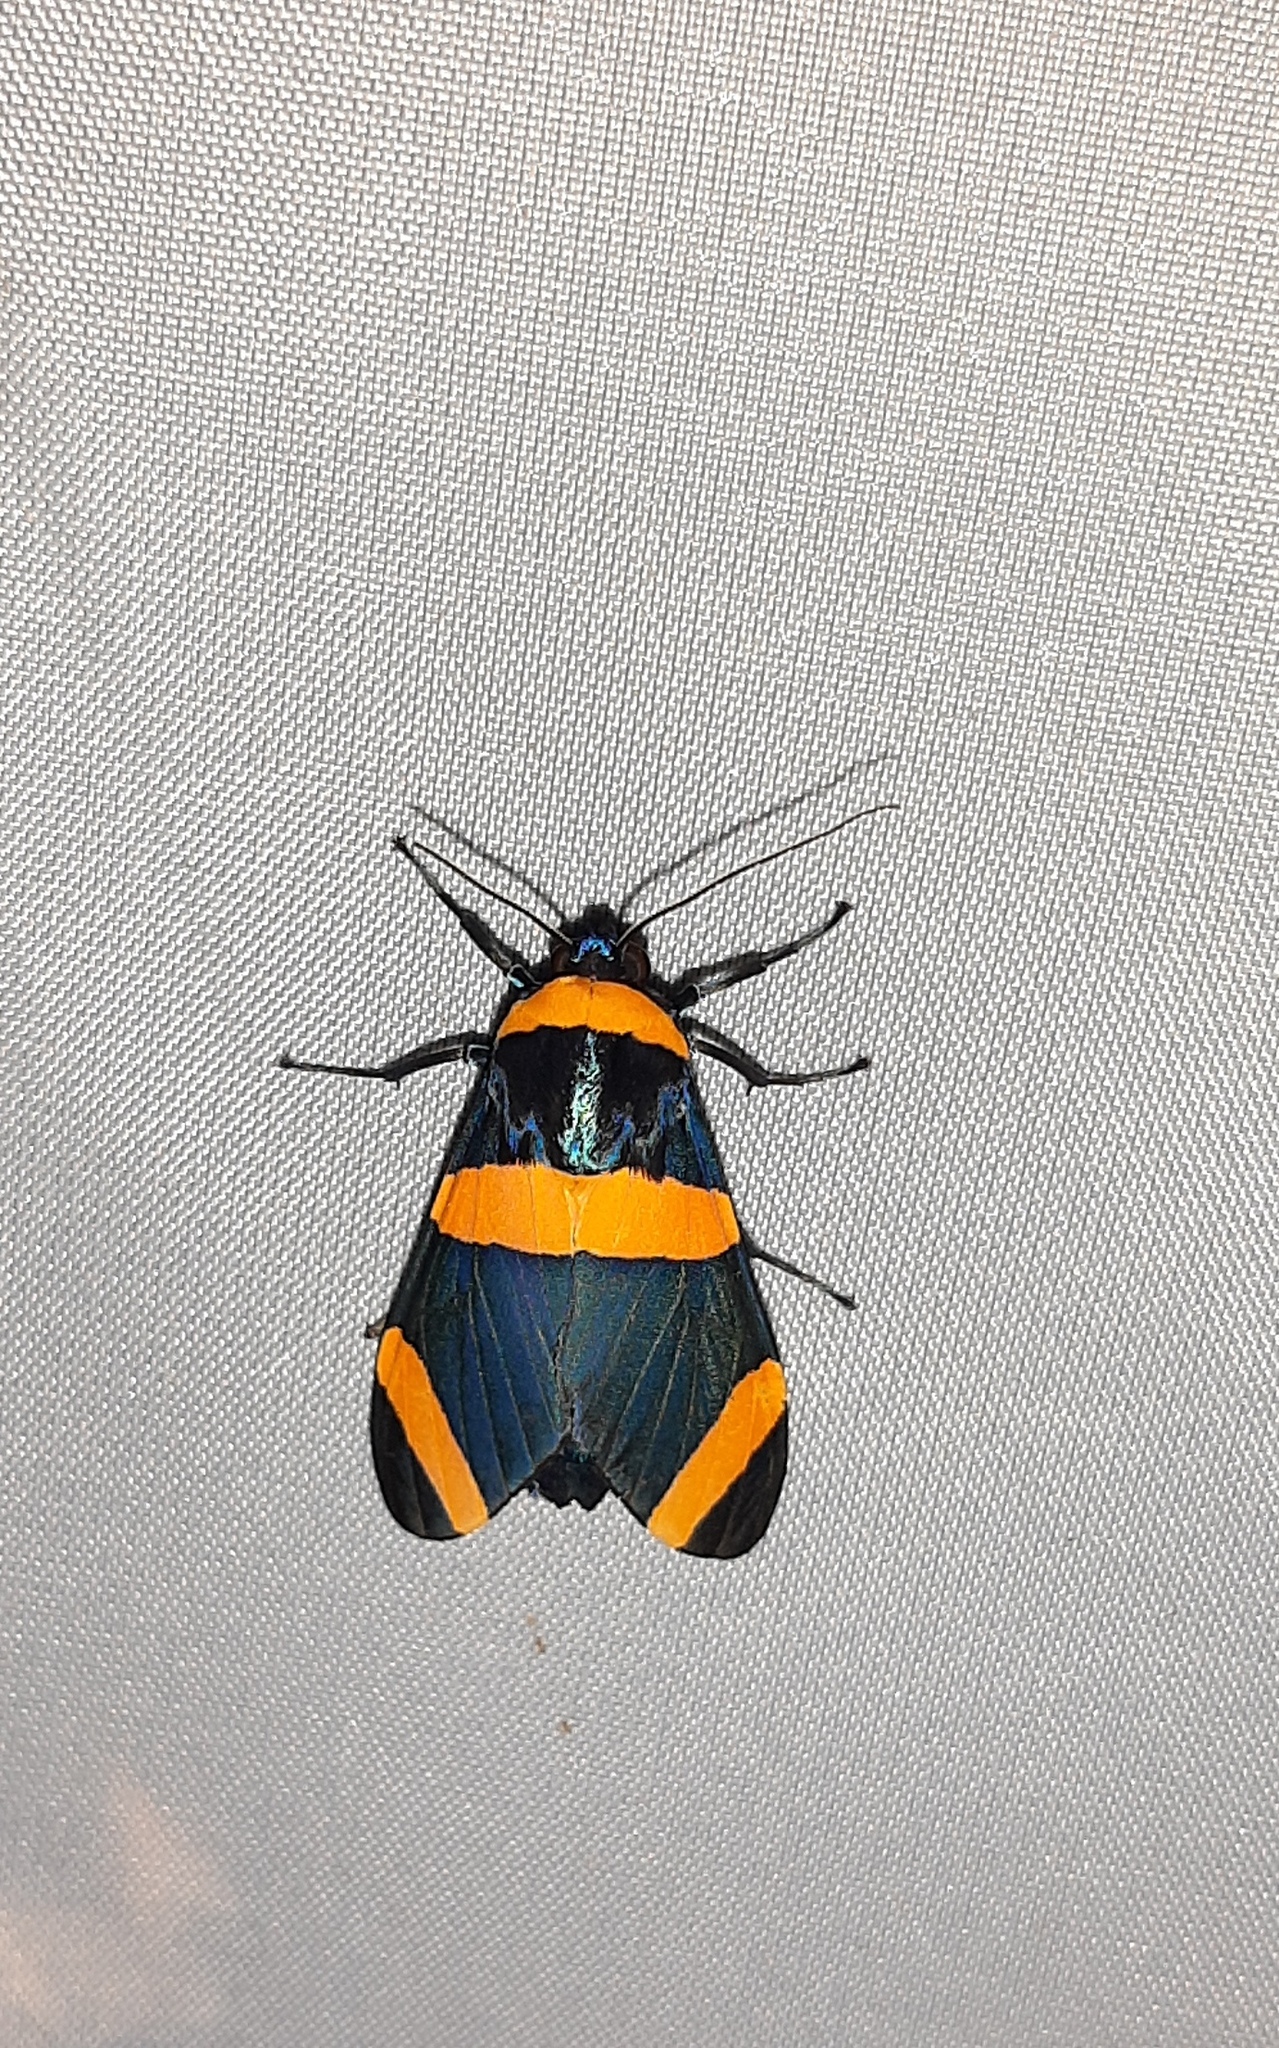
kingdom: Animalia
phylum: Arthropoda
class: Insecta
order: Lepidoptera
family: Erebidae
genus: Viviennea
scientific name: Viviennea griseonitens
